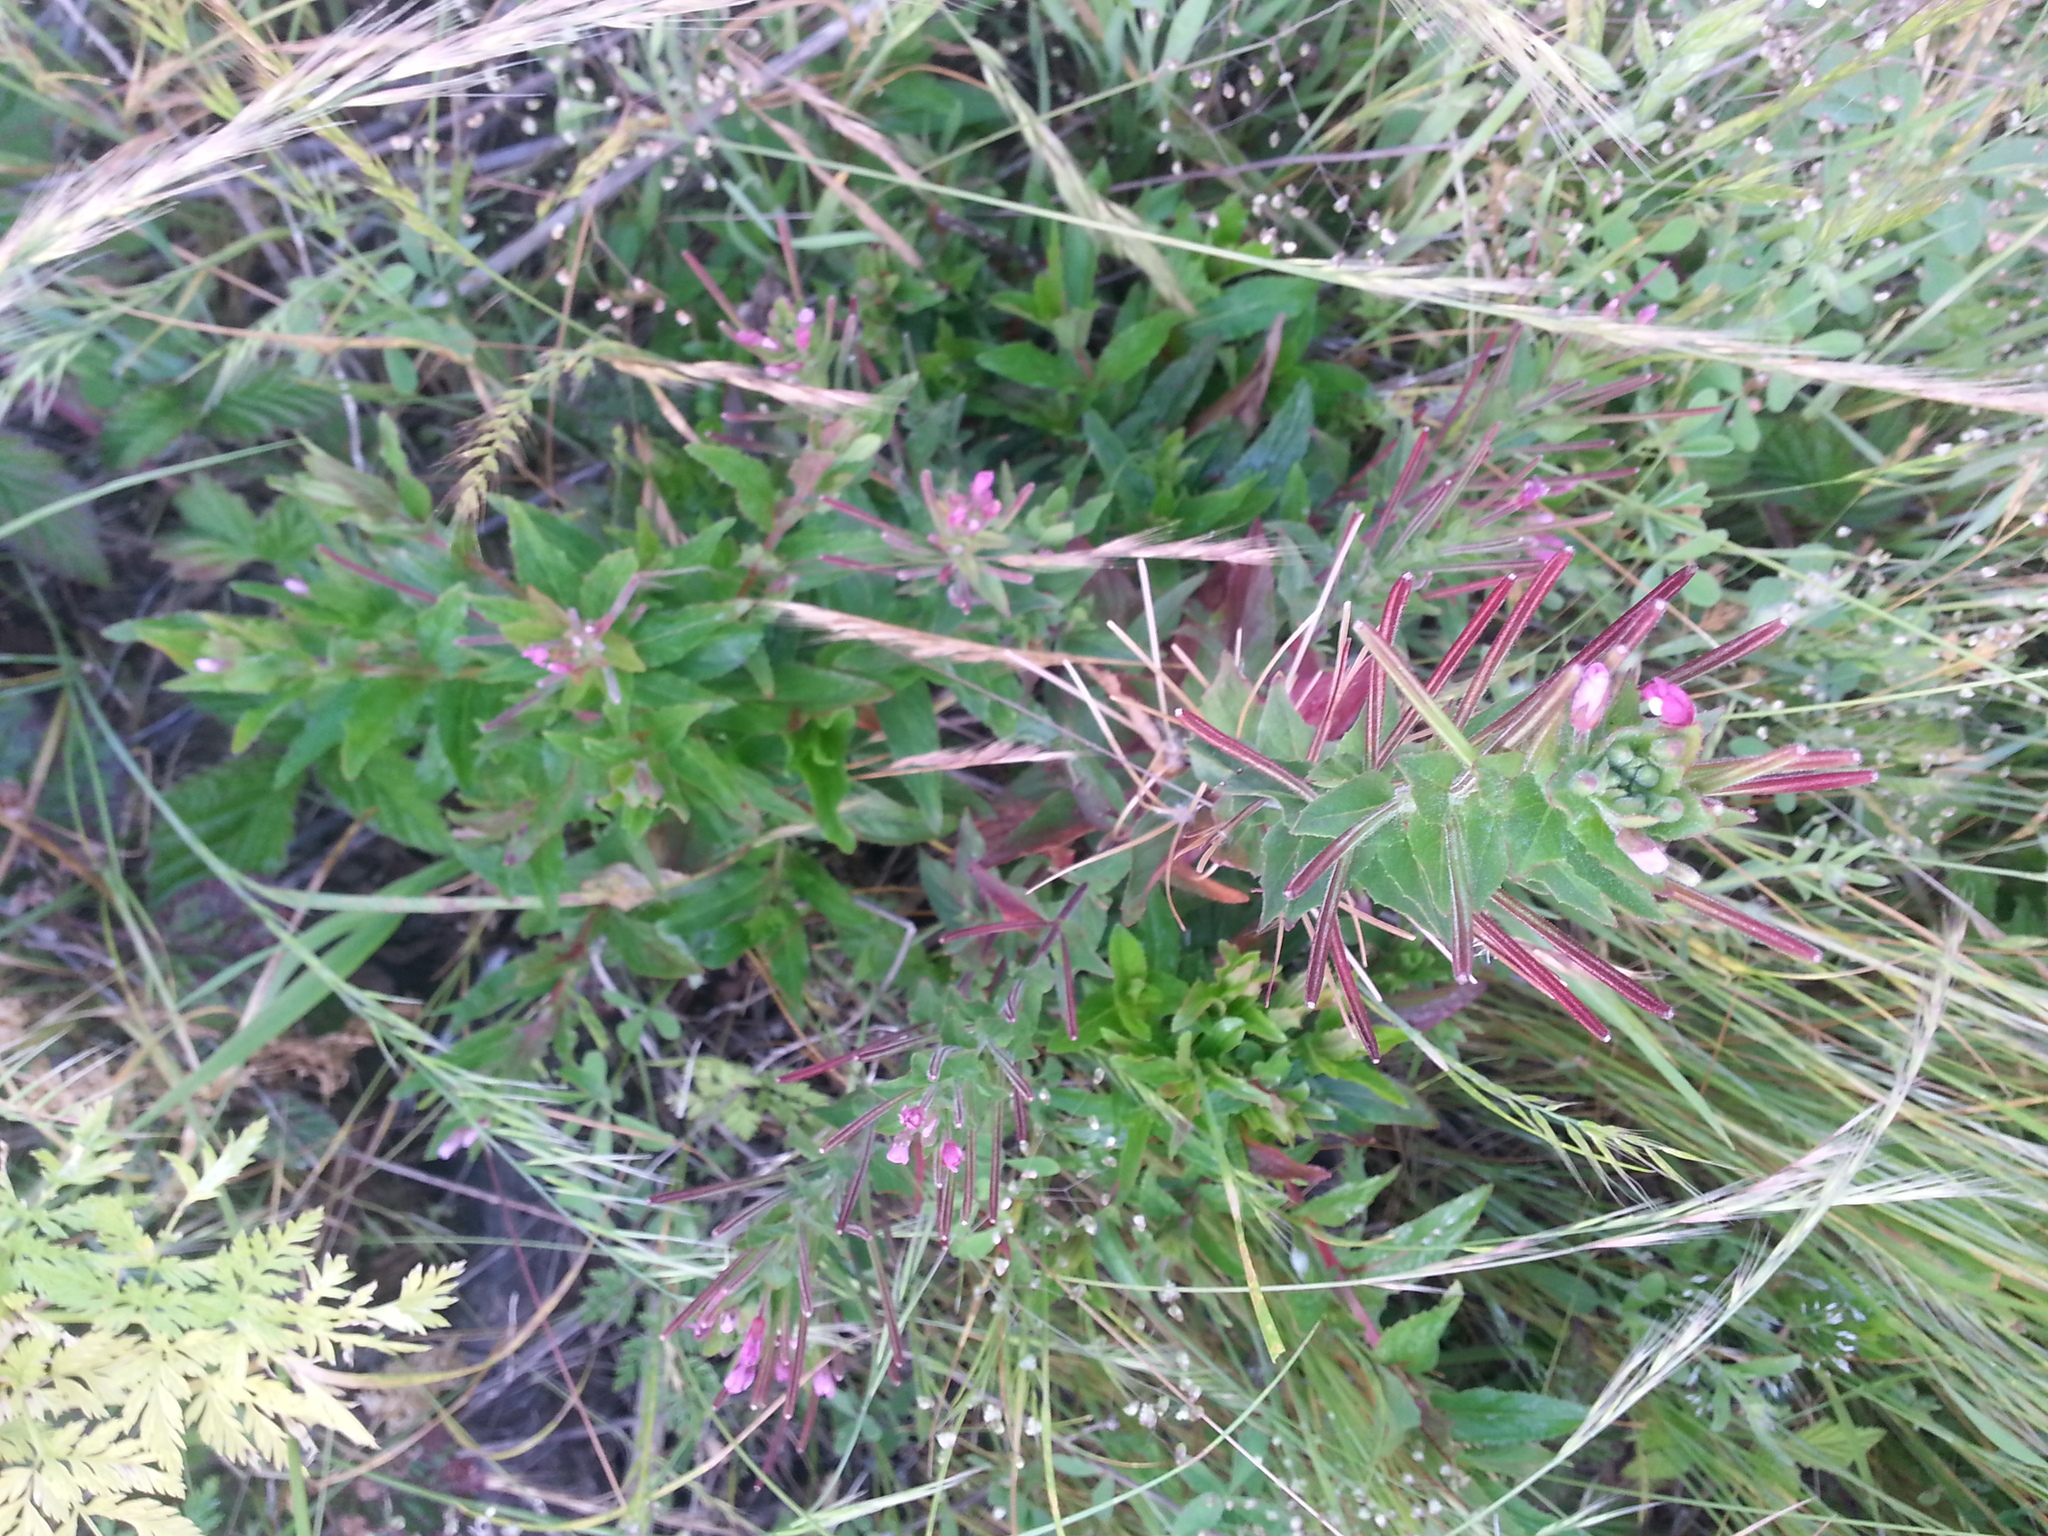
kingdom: Plantae
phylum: Tracheophyta
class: Magnoliopsida
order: Myrtales
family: Onagraceae
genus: Epilobium
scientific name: Epilobium ciliatum
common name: American willowherb
